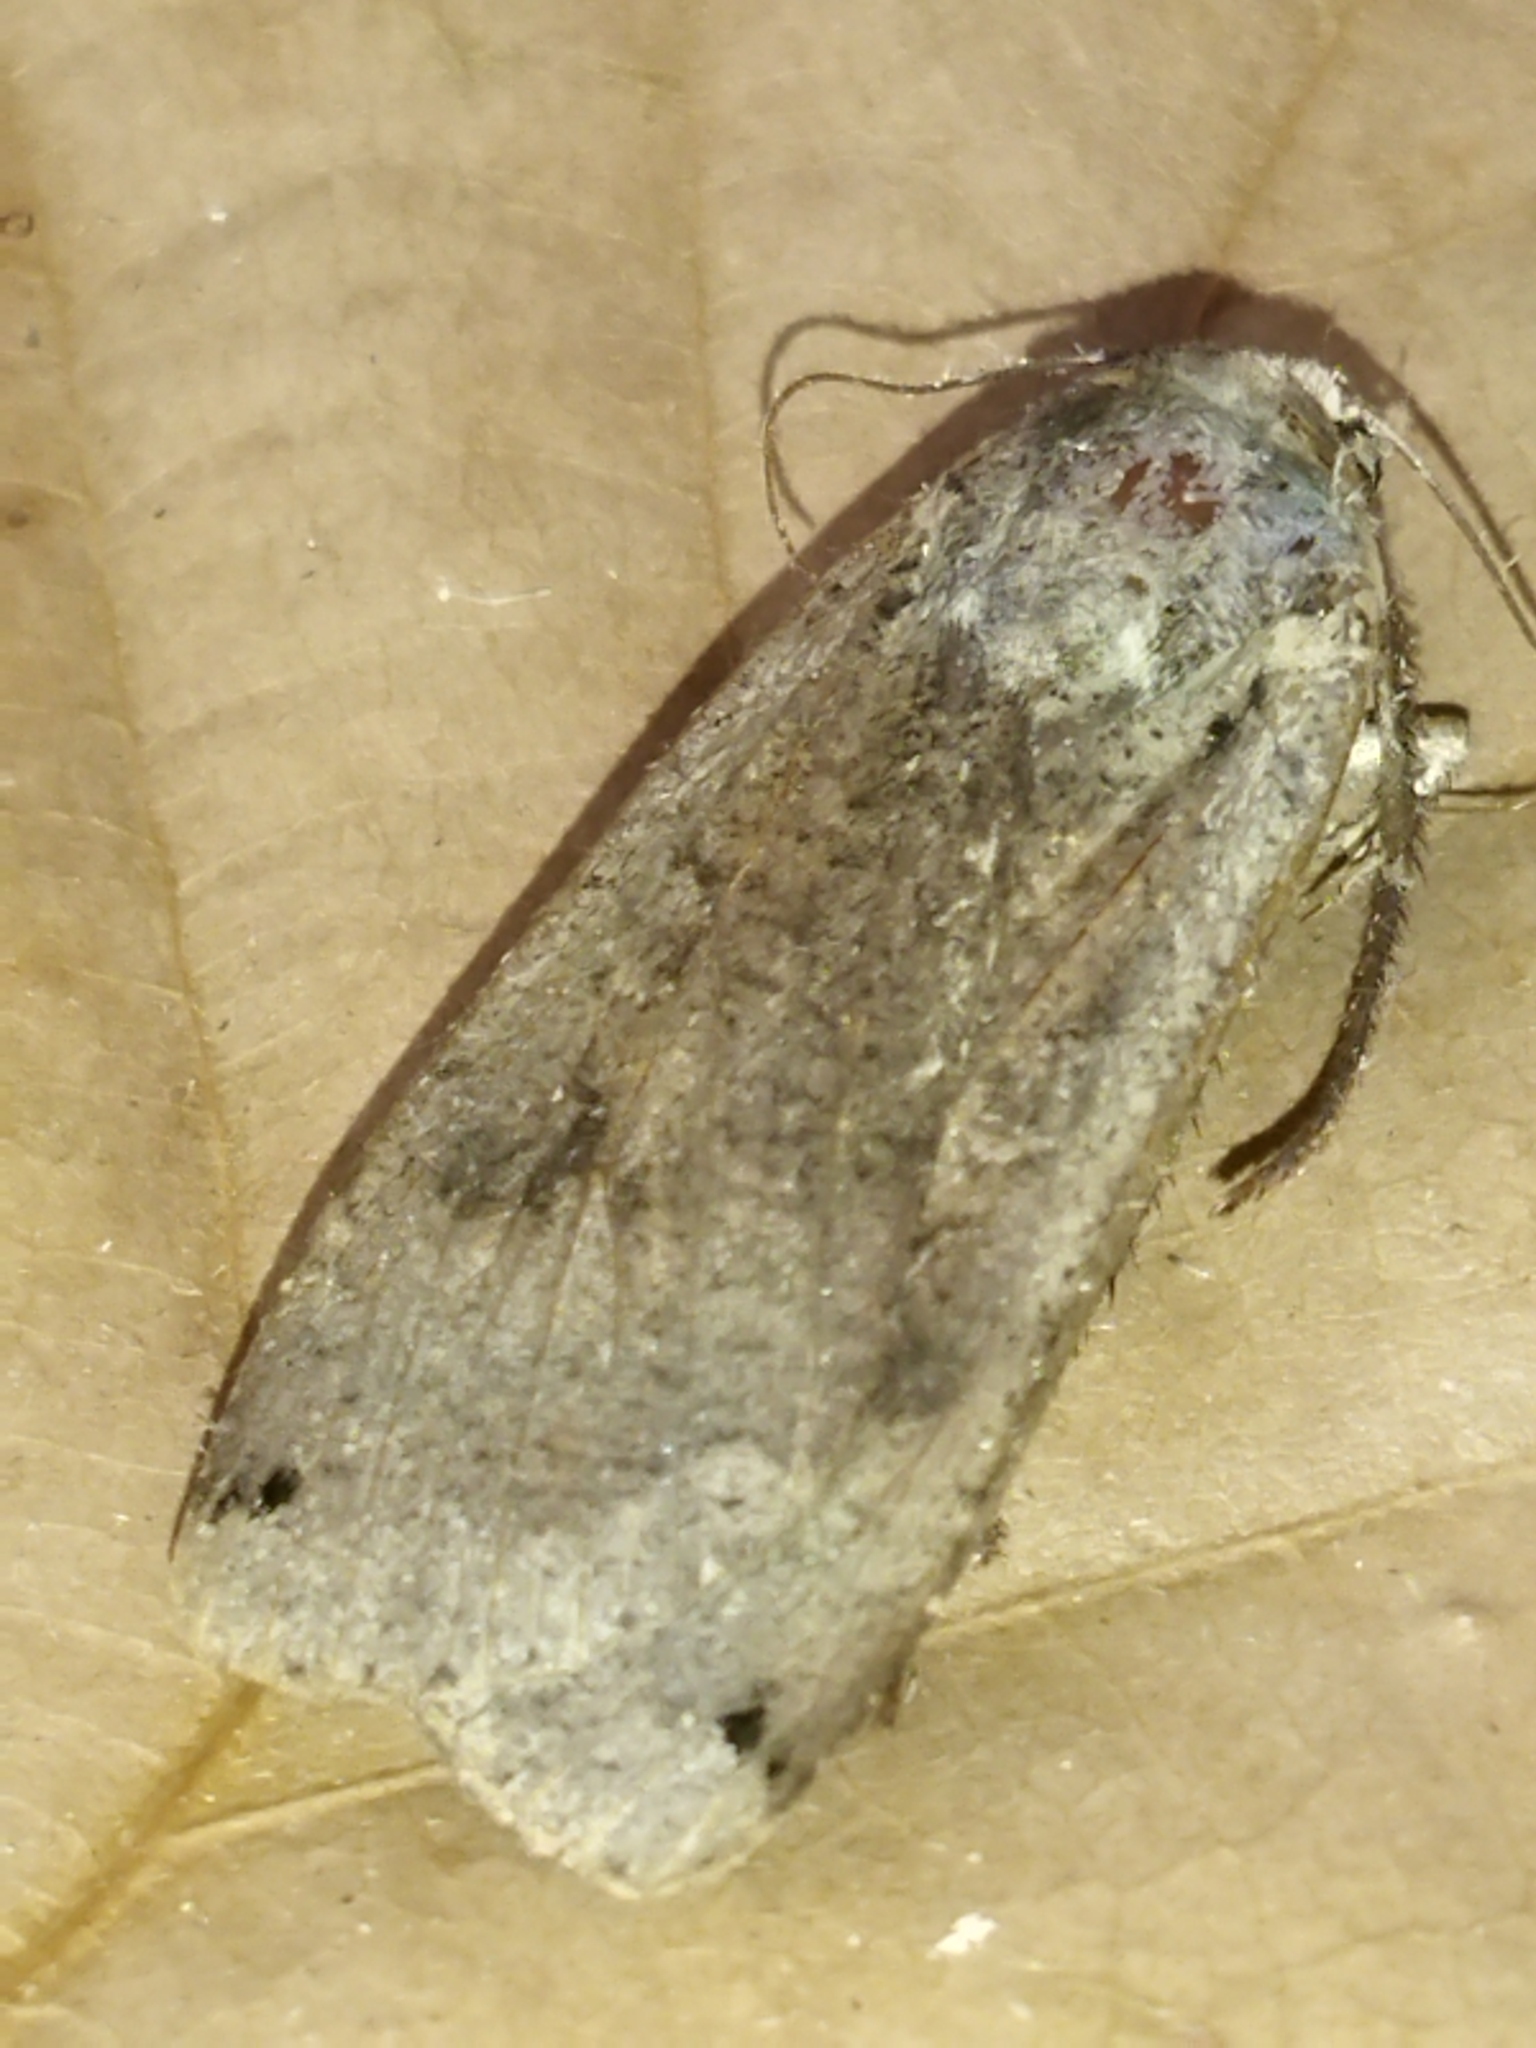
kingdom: Animalia
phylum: Arthropoda
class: Insecta
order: Lepidoptera
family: Noctuidae
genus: Noctua
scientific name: Noctua pronuba
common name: Large yellow underwing
